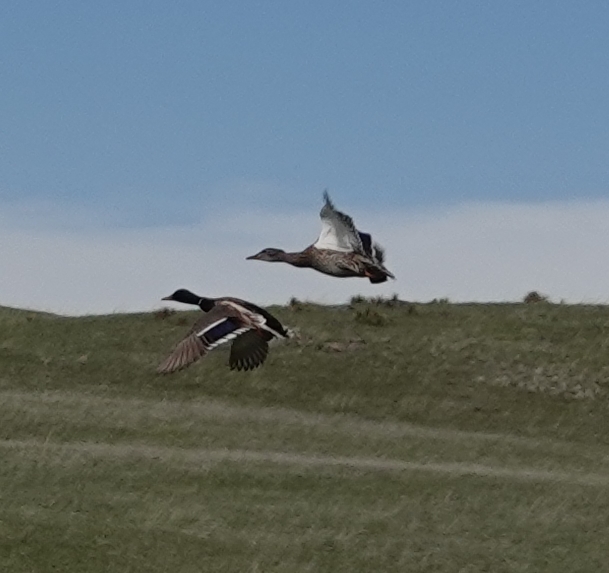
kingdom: Animalia
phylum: Chordata
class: Aves
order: Anseriformes
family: Anatidae
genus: Anas
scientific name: Anas platyrhynchos
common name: Mallard
